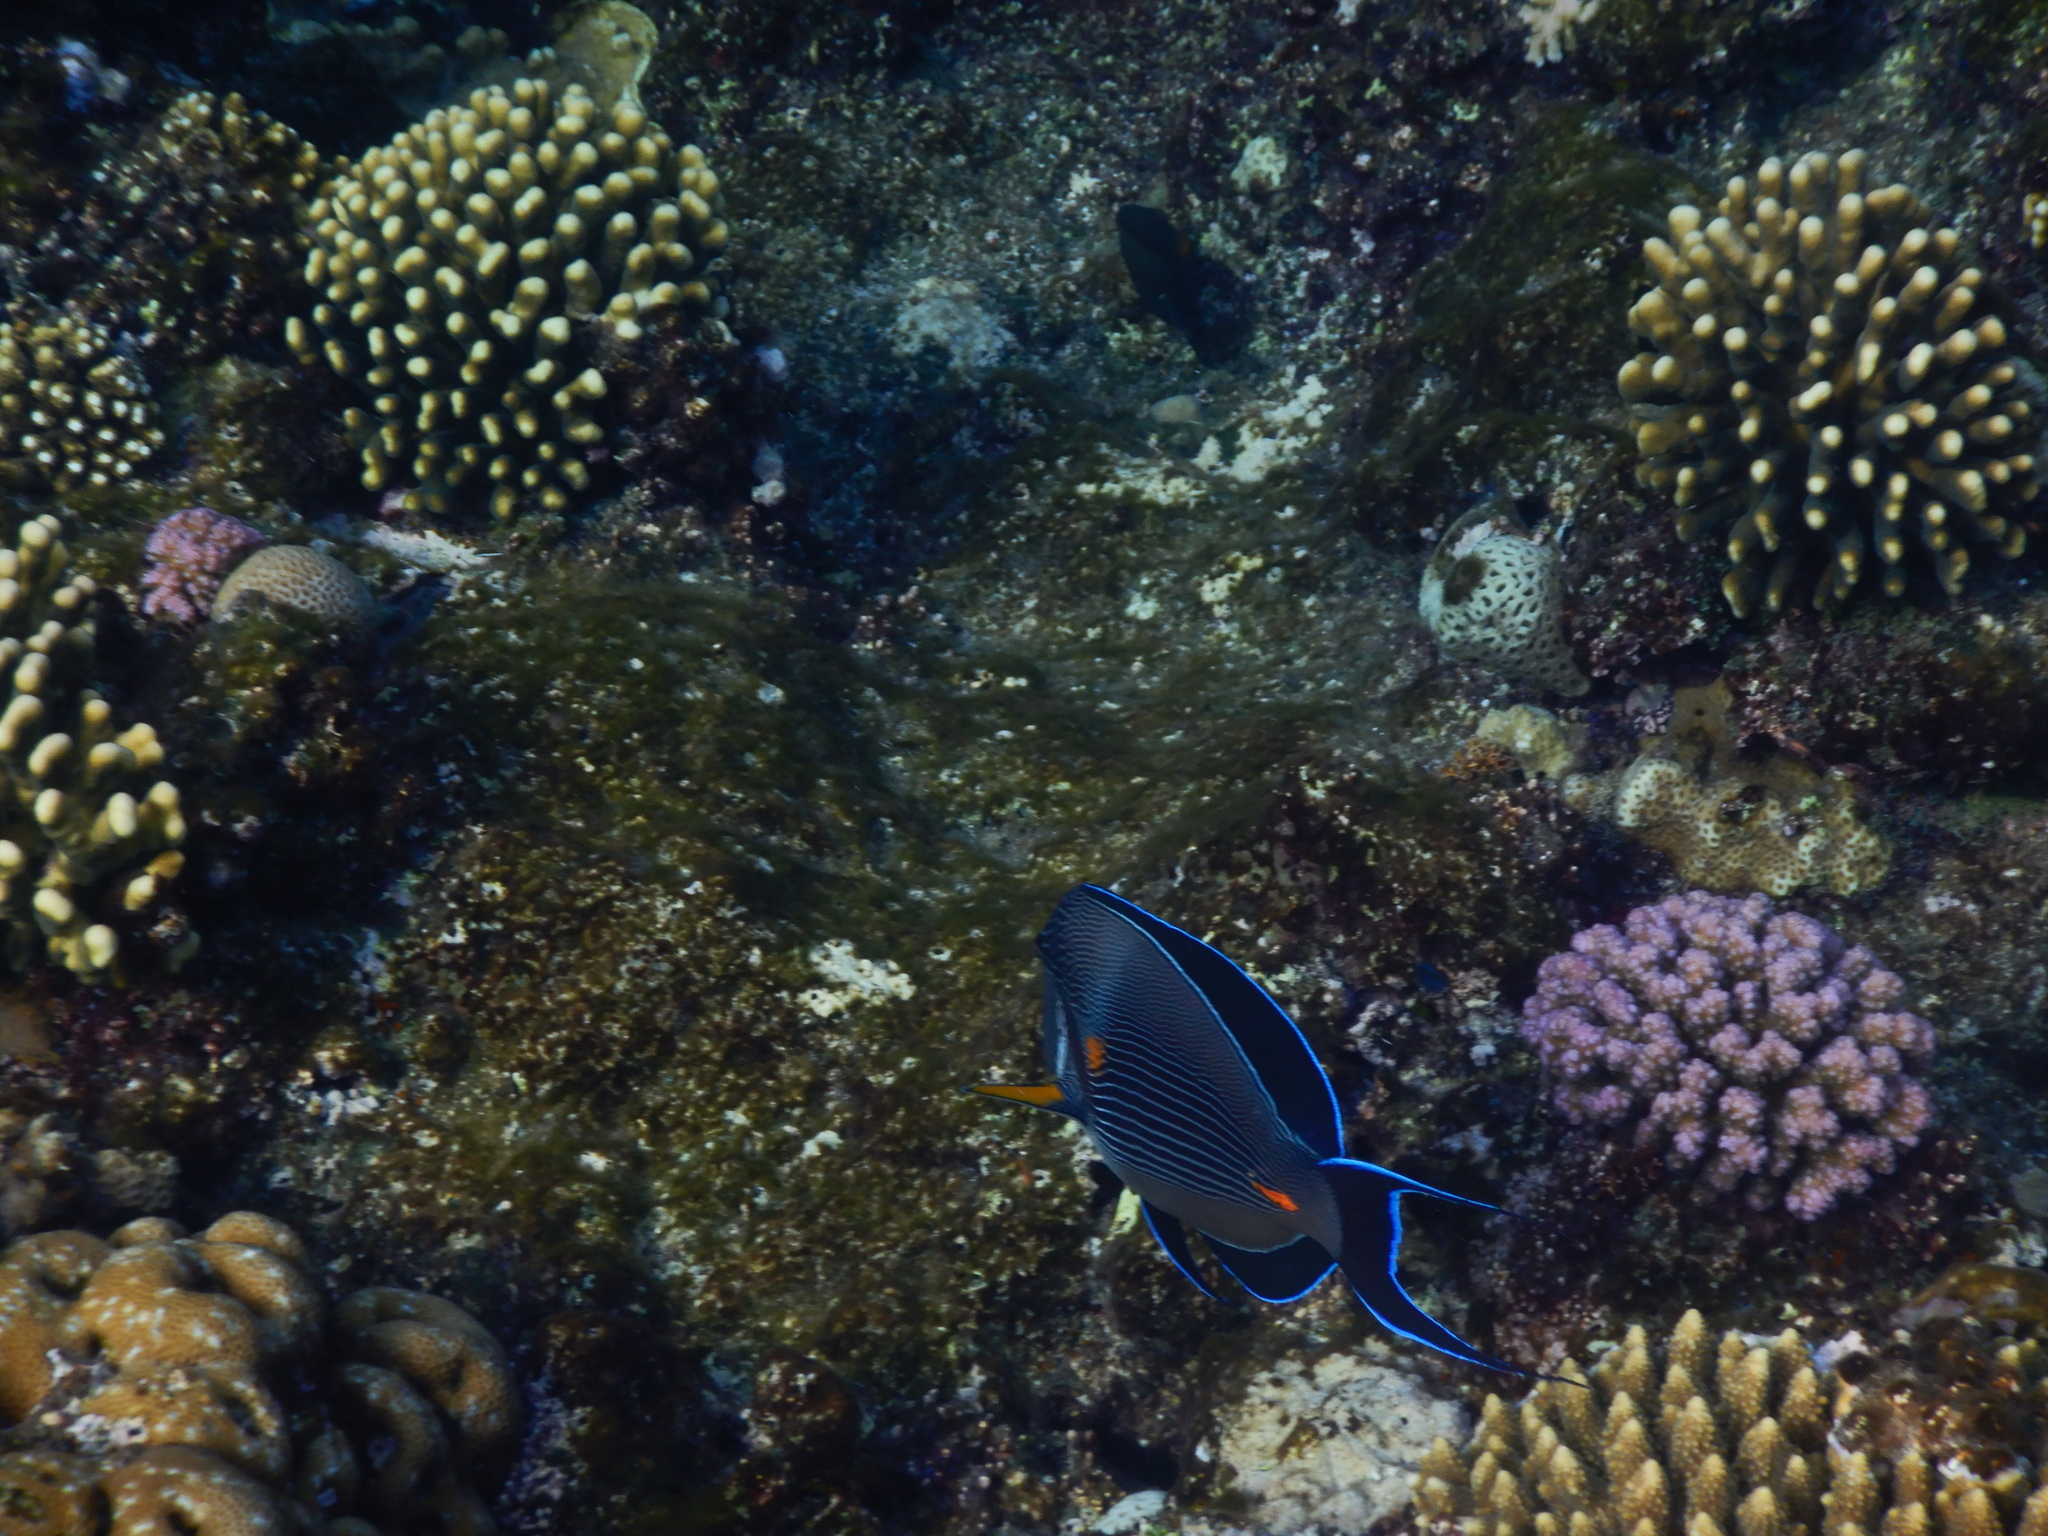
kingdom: Animalia
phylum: Chordata
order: Perciformes
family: Acanthuridae
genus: Acanthurus
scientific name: Acanthurus sohal
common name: Red sea surgeonfish
